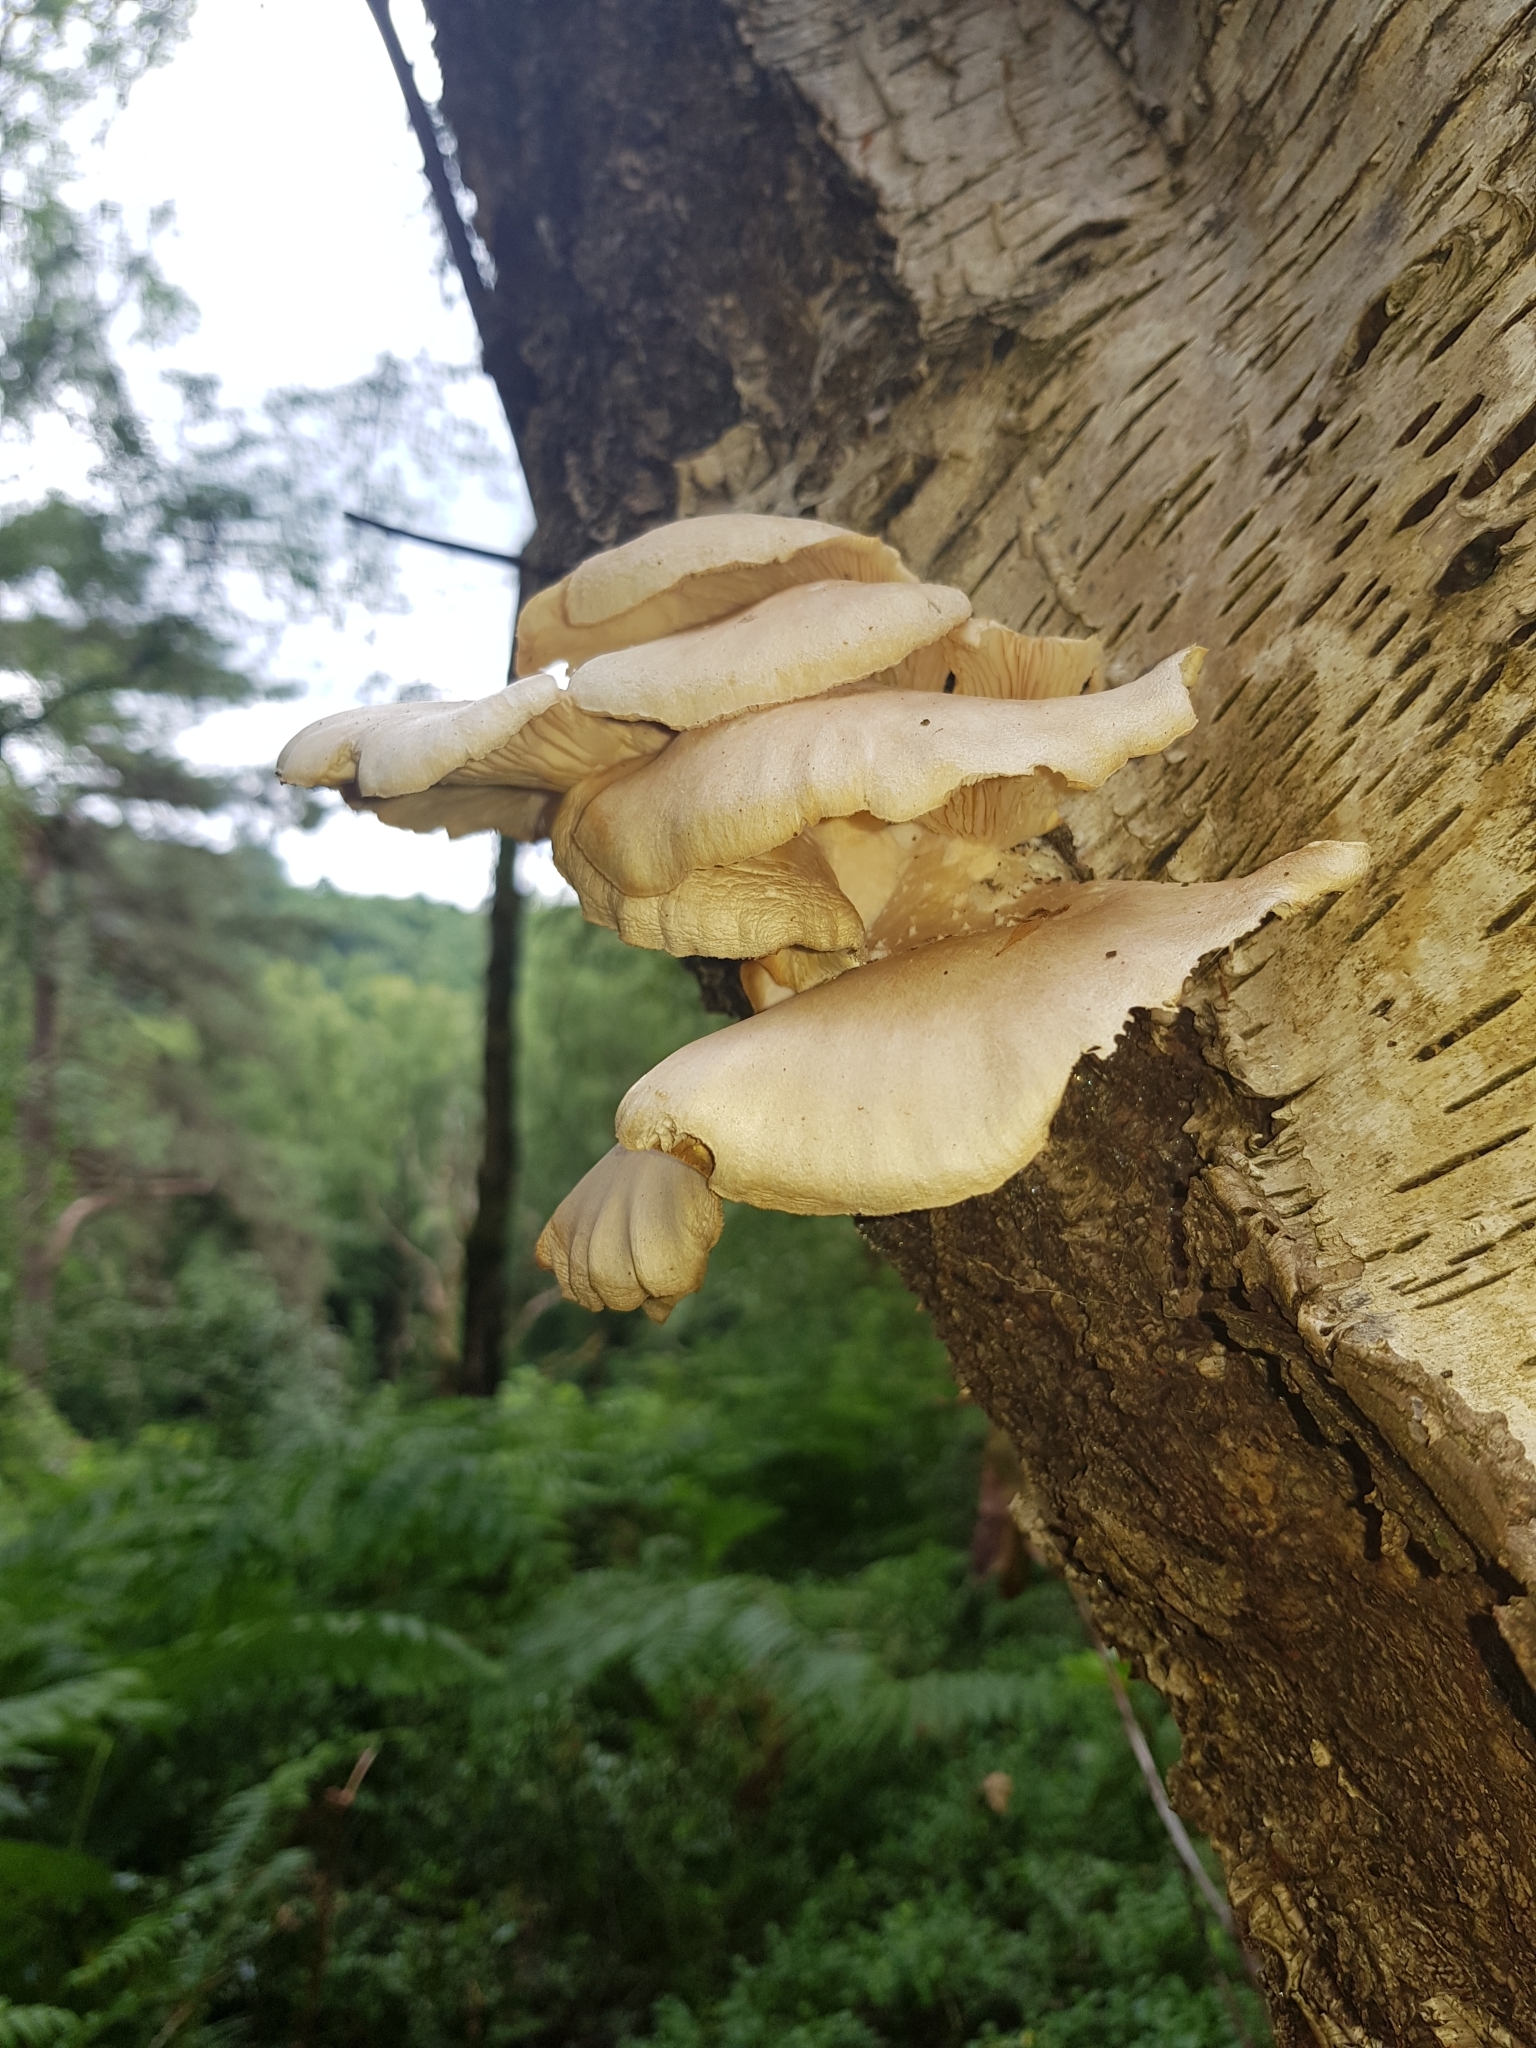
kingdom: Fungi
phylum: Basidiomycota
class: Agaricomycetes
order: Agaricales
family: Pleurotaceae
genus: Pleurotus
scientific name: Pleurotus ostreatus
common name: Oyster mushroom
